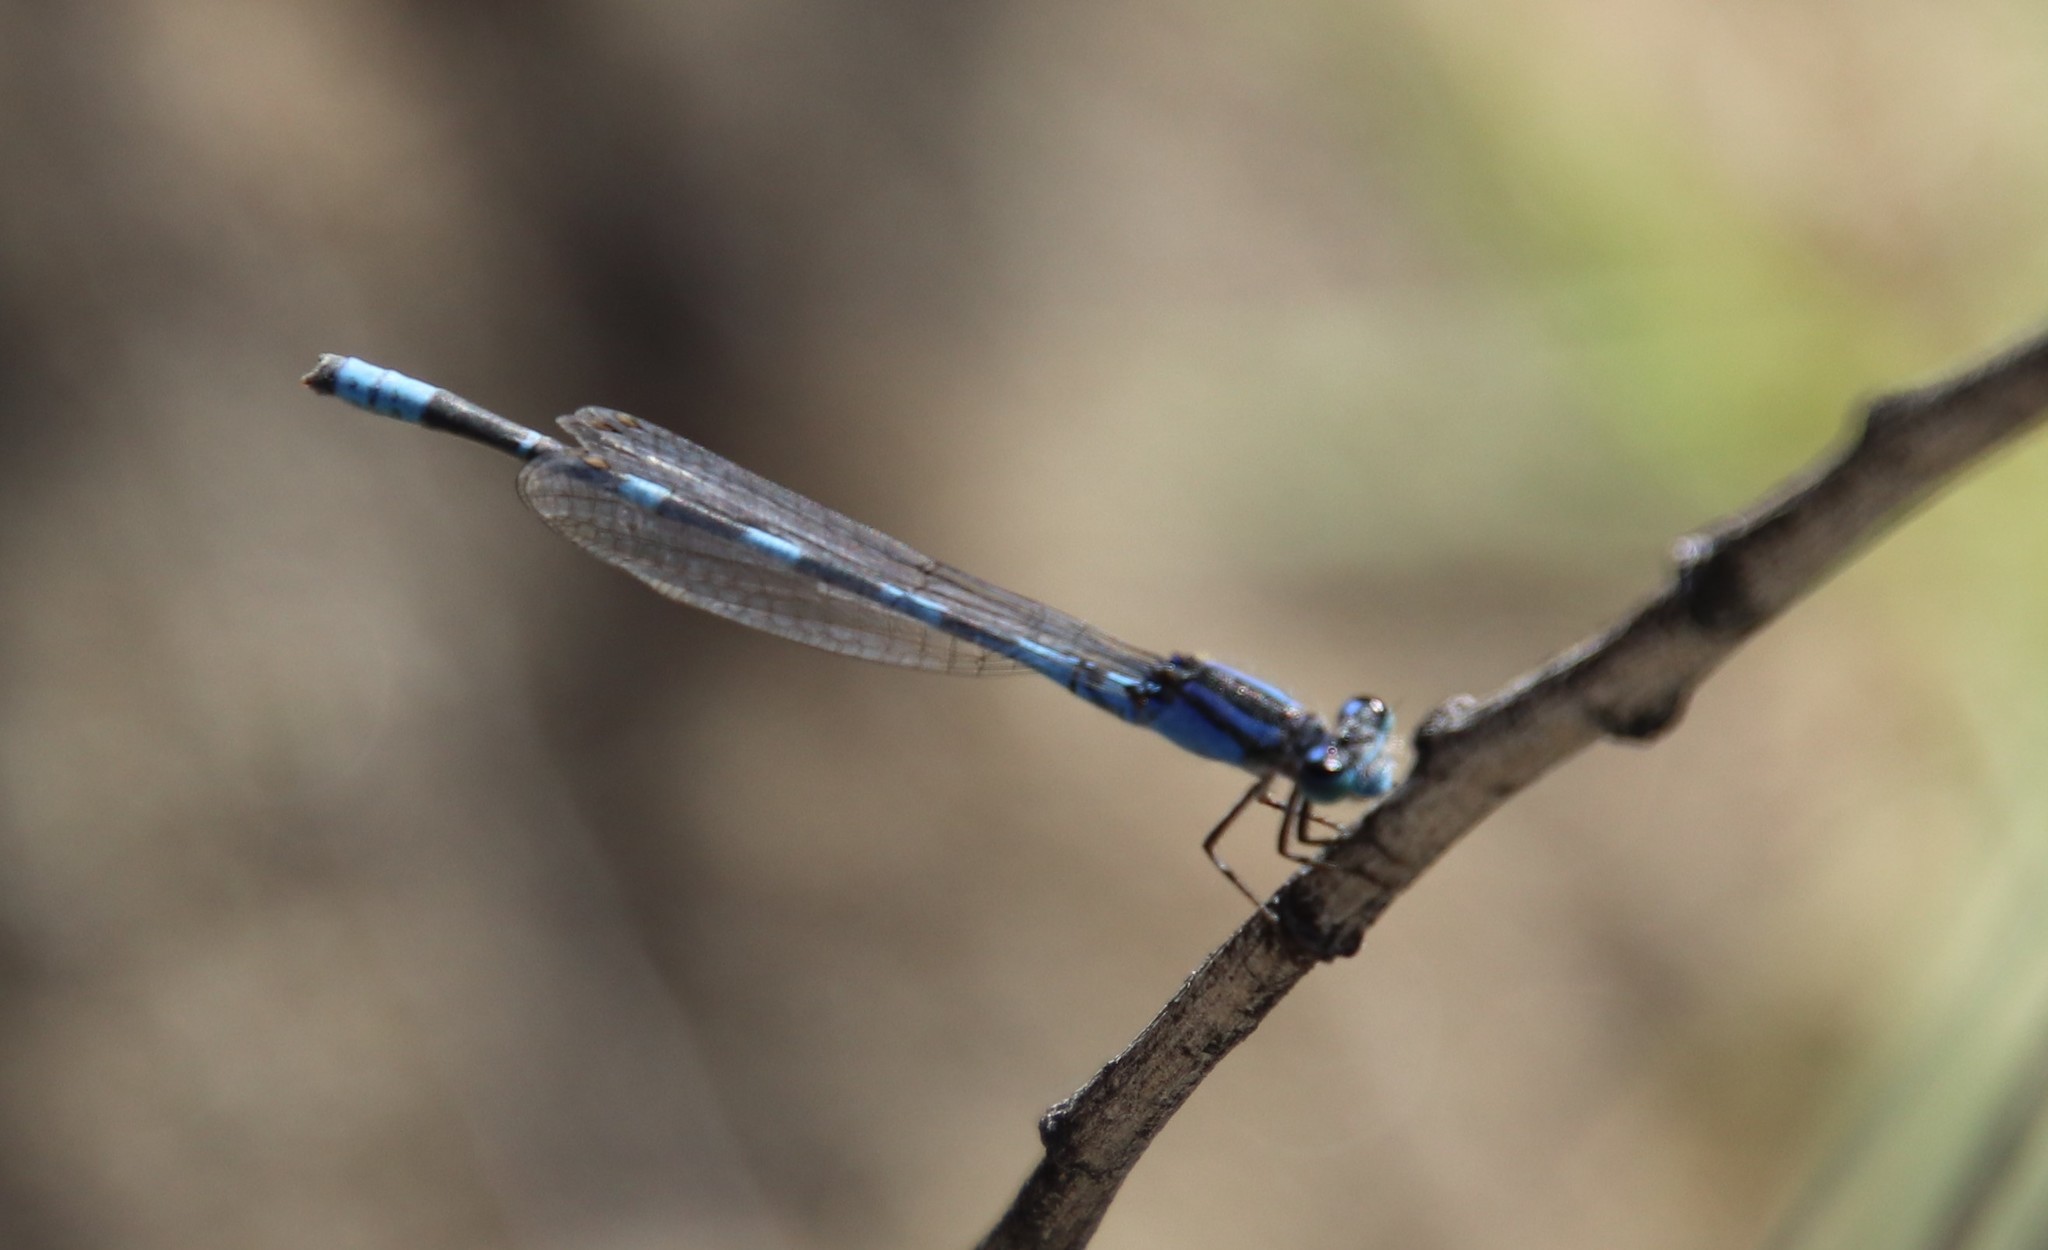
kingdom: Animalia
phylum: Arthropoda
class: Insecta
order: Odonata
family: Coenagrionidae
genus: Enallagma
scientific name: Enallagma carunculatum
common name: Tule bluet
